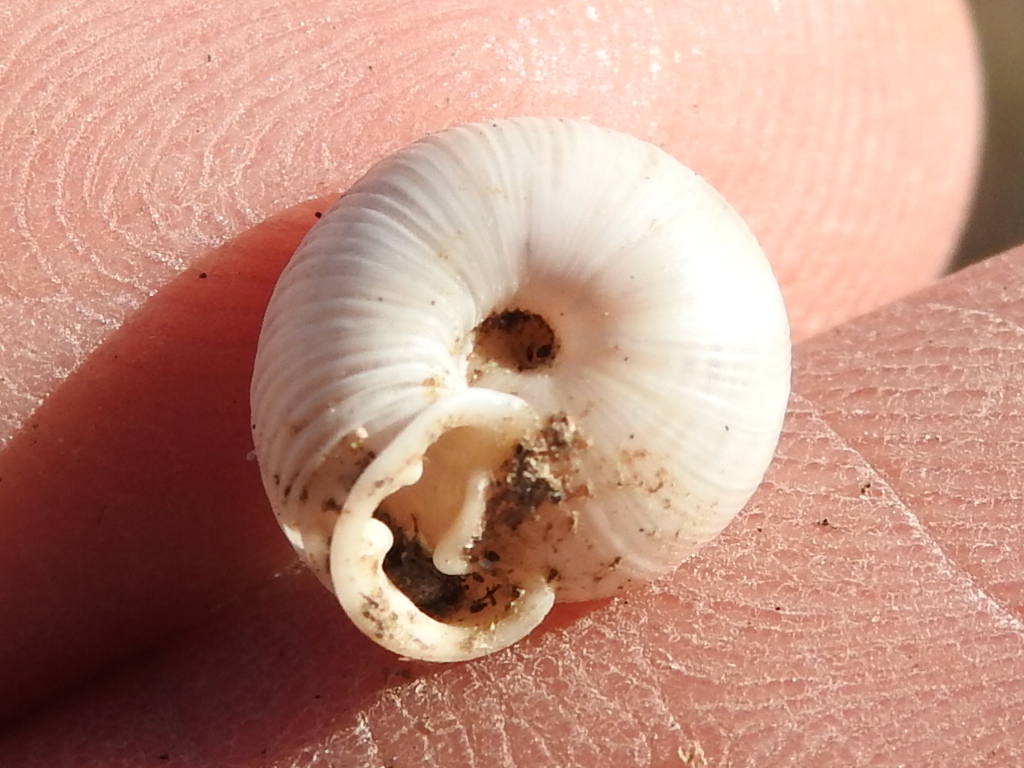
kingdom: Animalia
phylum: Mollusca
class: Gastropoda
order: Stylommatophora
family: Polygyridae
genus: Linisa
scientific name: Linisa texasiana
